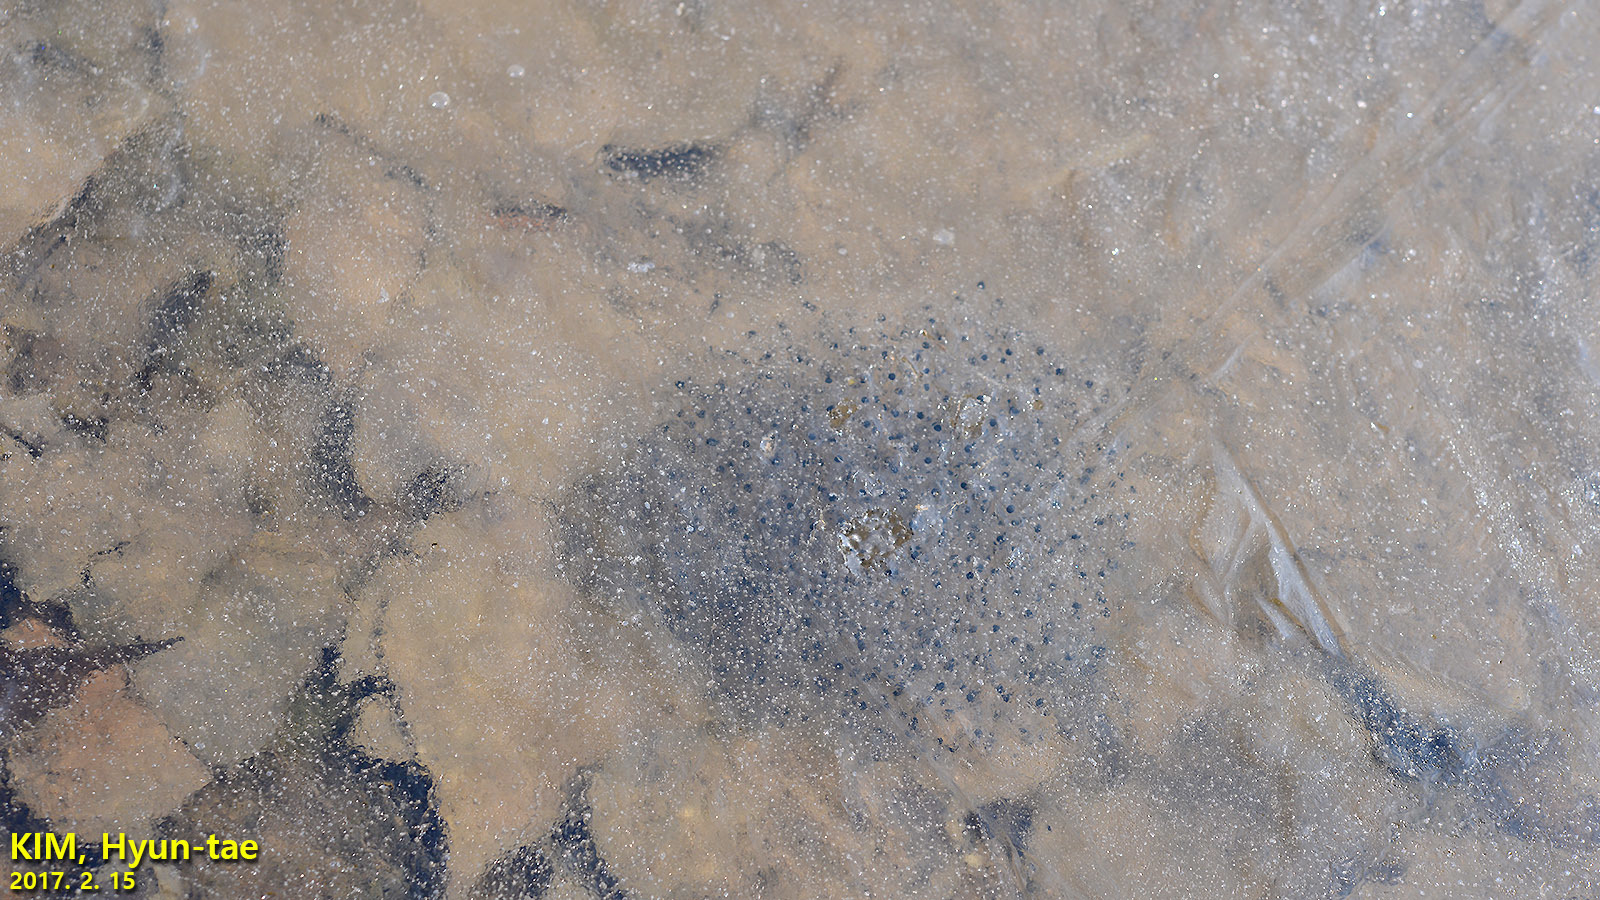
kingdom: Animalia
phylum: Chordata
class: Amphibia
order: Anura
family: Ranidae
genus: Rana
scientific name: Rana uenoi
